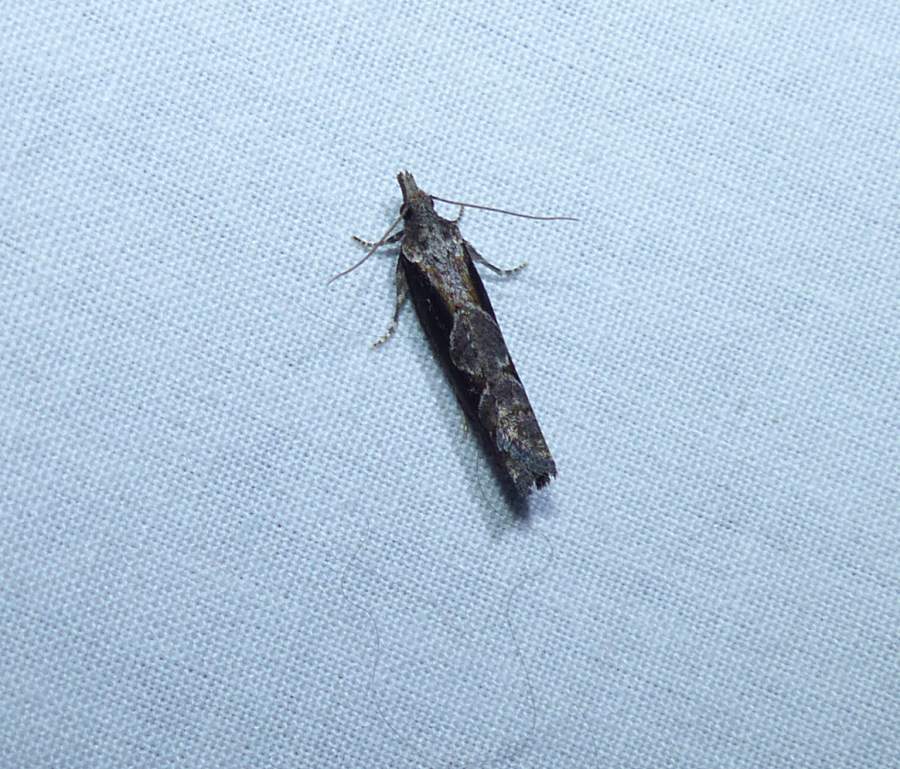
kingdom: Animalia
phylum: Arthropoda
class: Insecta
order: Lepidoptera
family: Tortricidae
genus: Epinotia
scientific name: Epinotia lindana
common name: Diamondback epinotia moth
